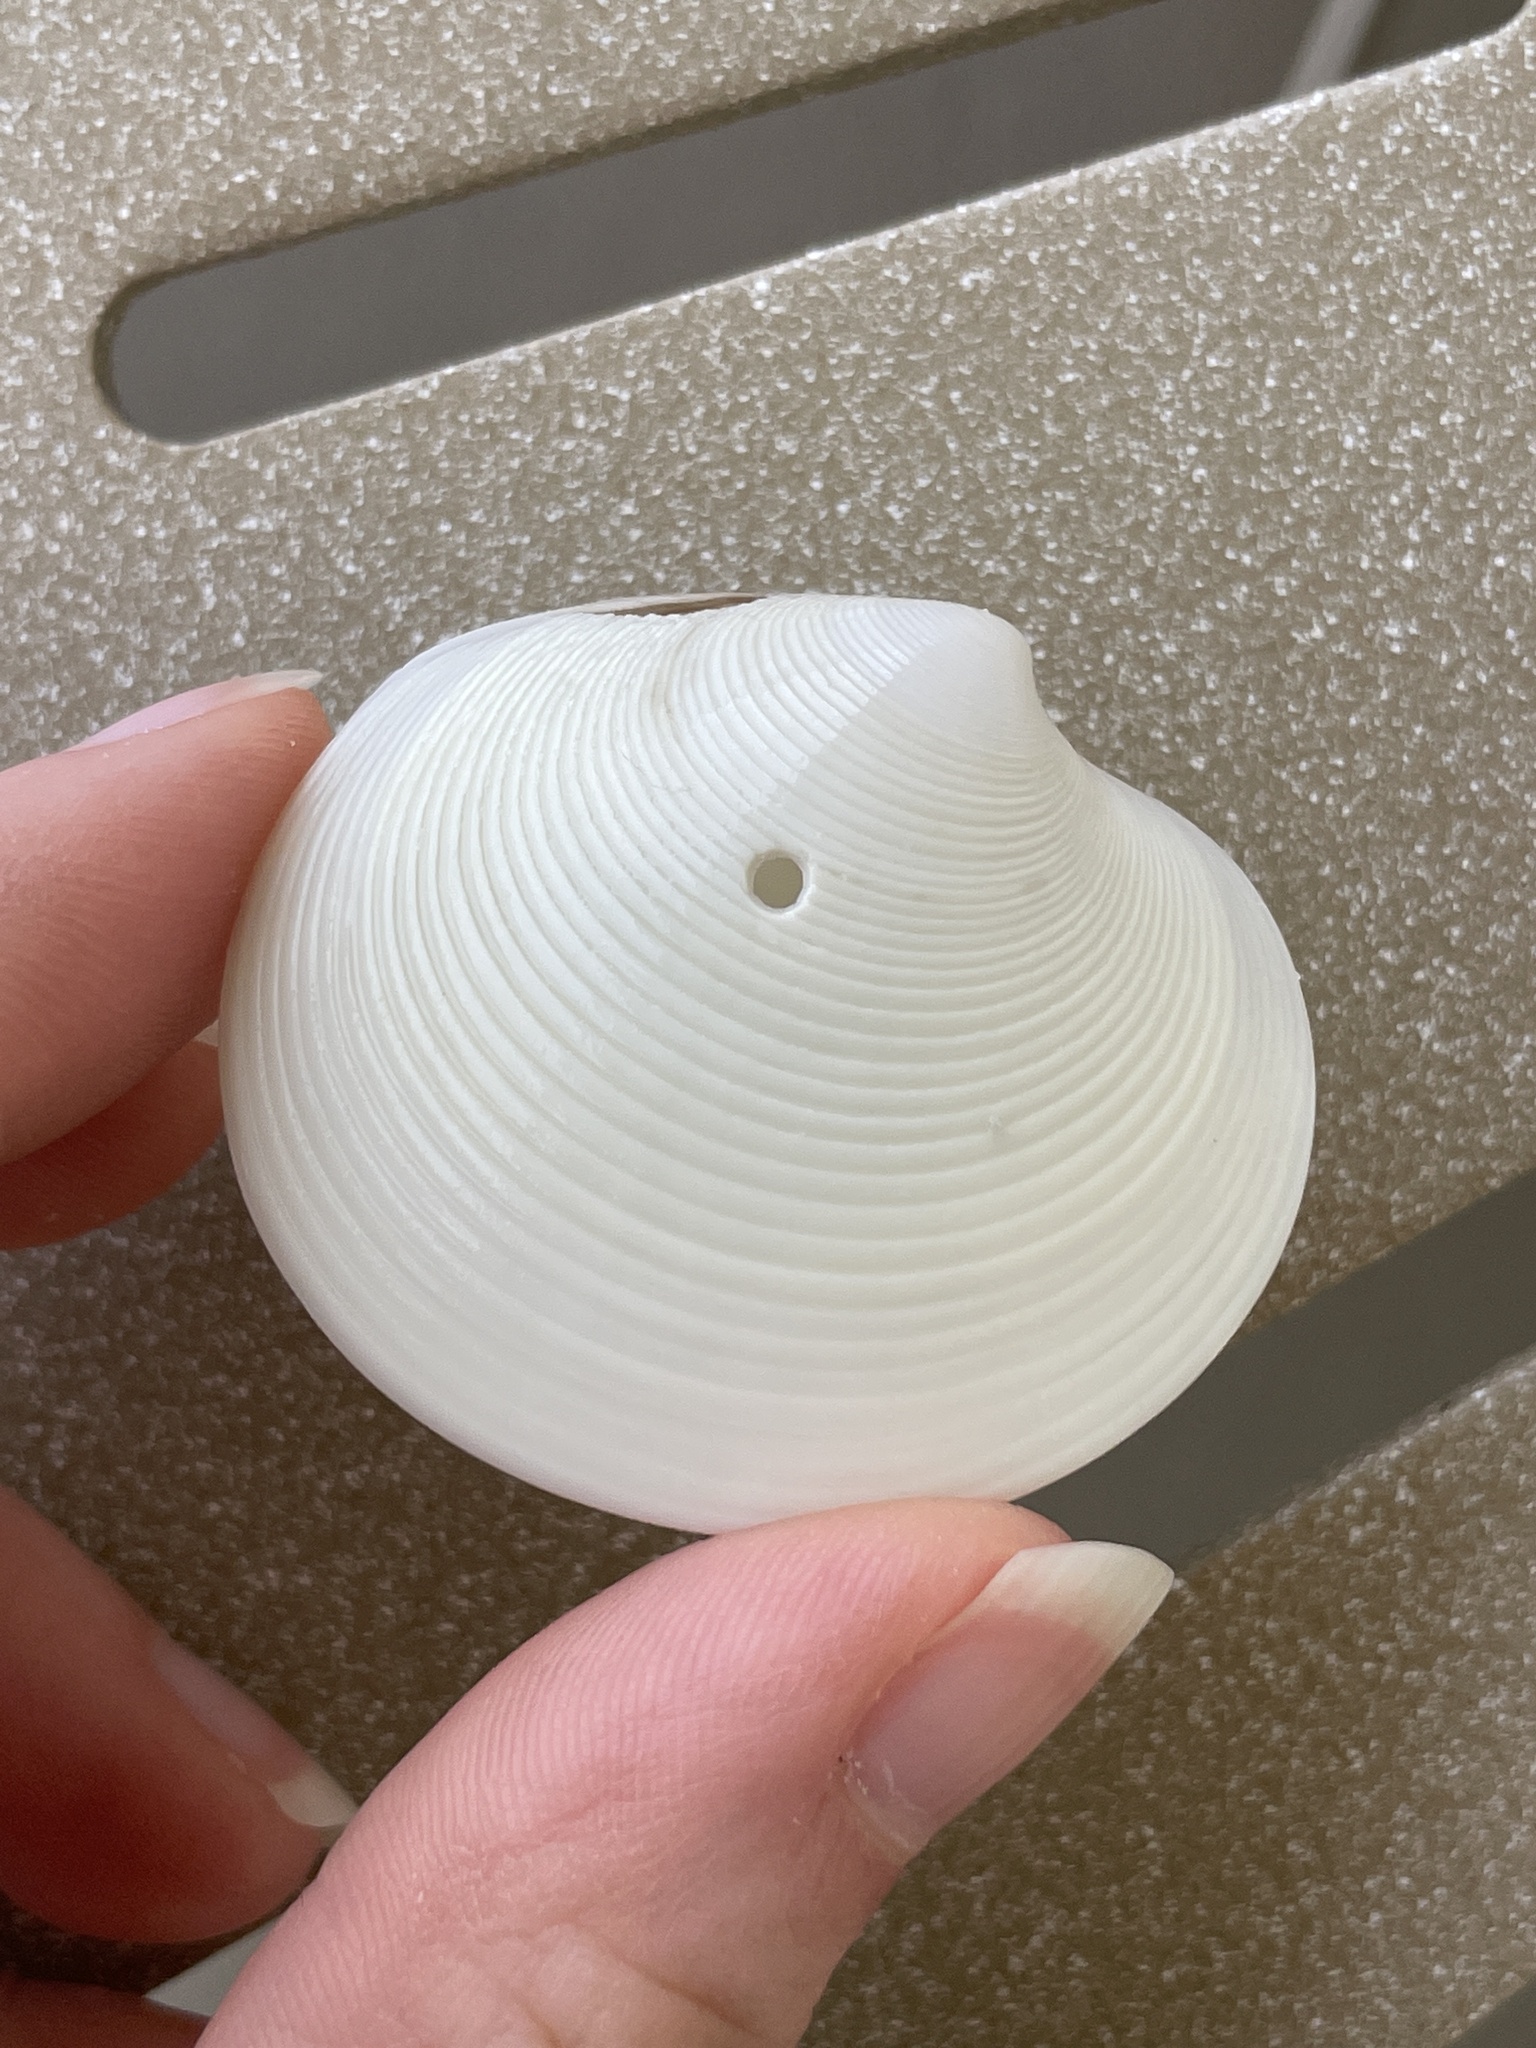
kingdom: Animalia
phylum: Mollusca
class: Bivalvia
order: Venerida
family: Veneridae
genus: Dosinia
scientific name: Dosinia concentrica
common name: Elegant dosinia
